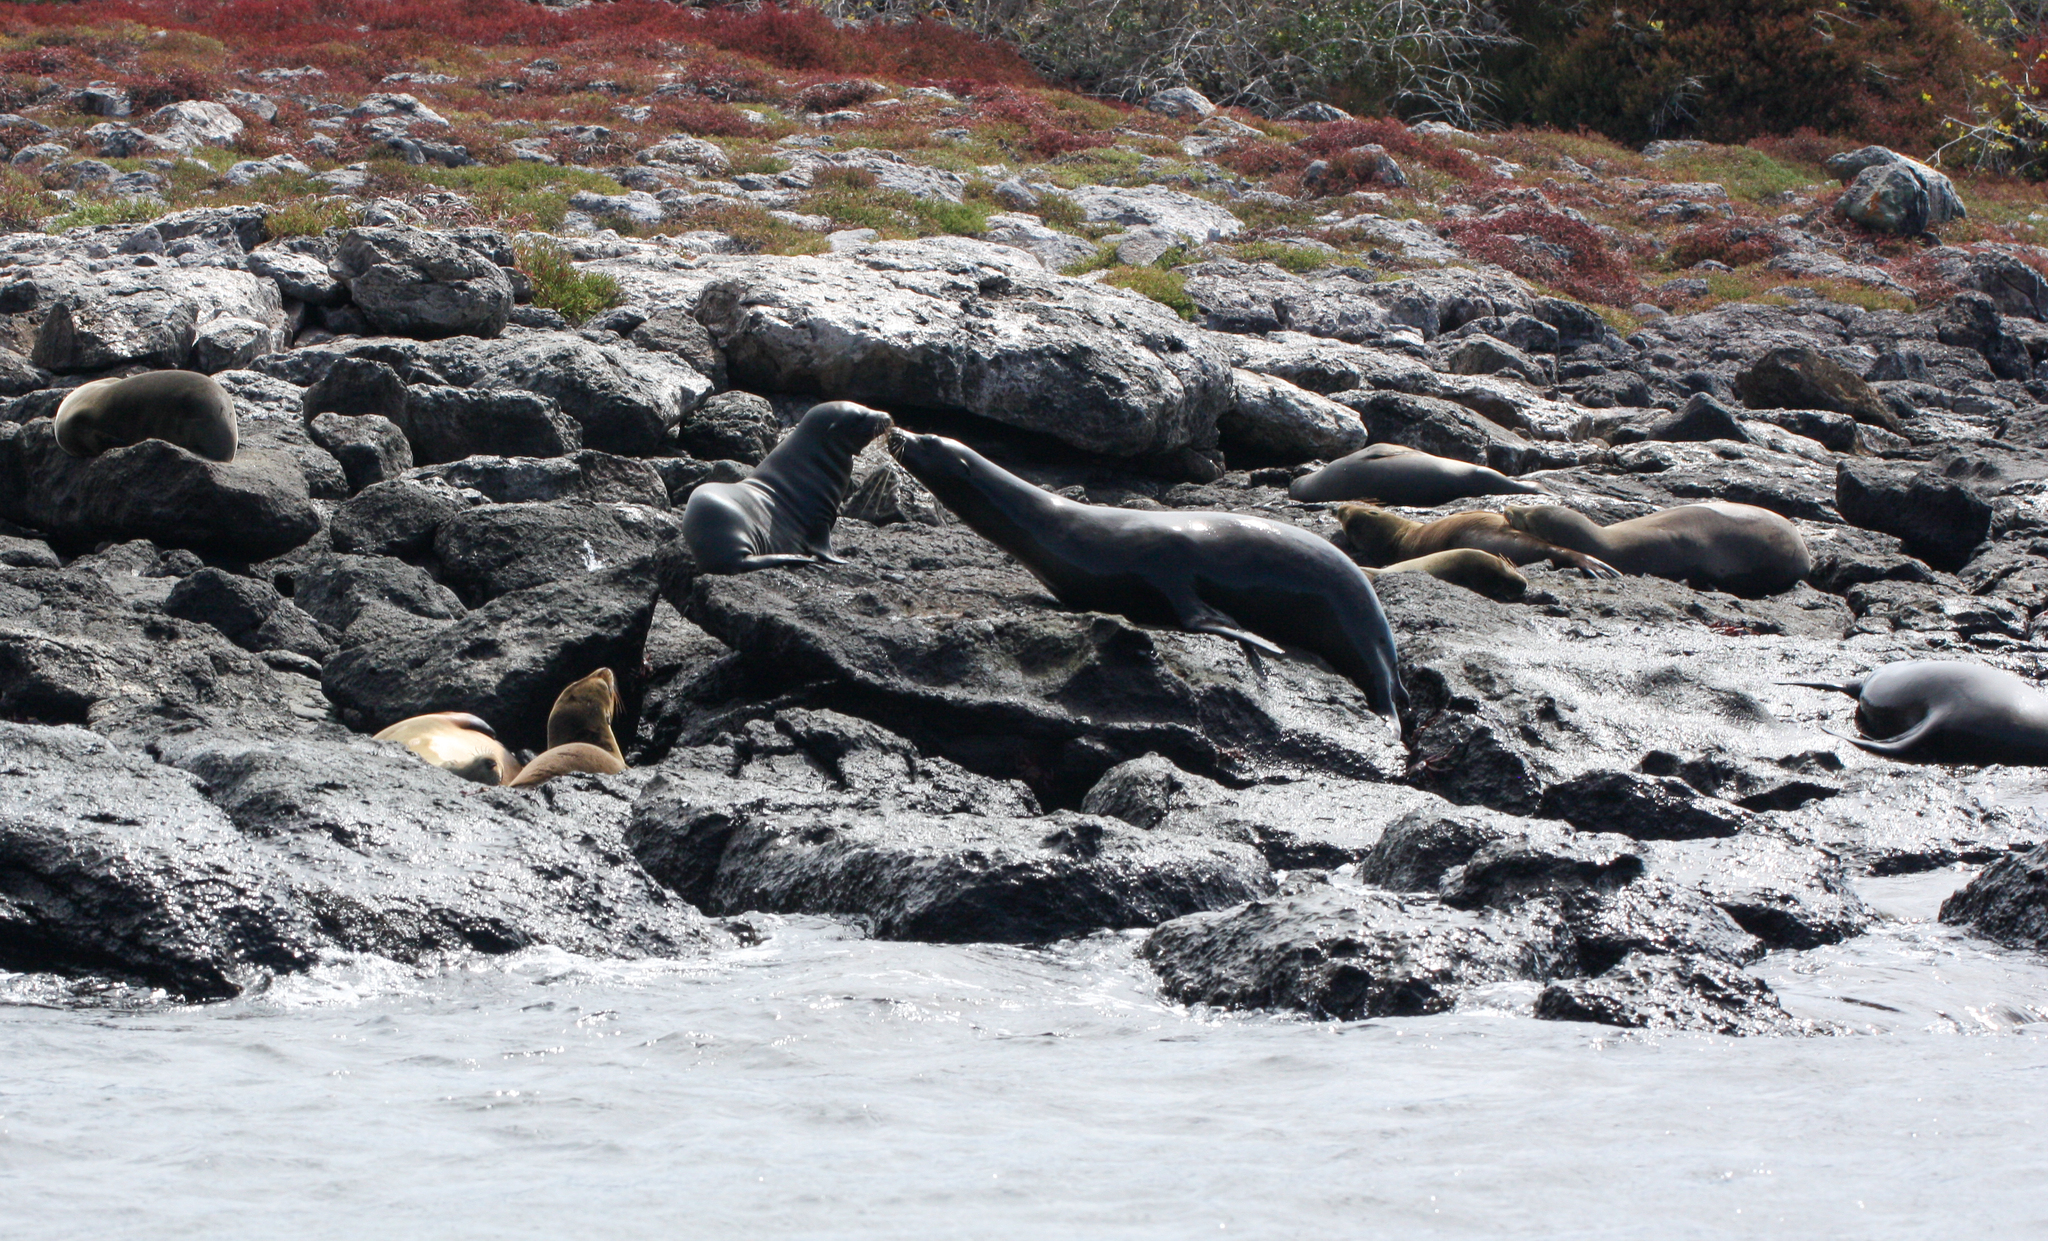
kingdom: Animalia
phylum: Chordata
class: Mammalia
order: Carnivora
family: Otariidae
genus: Zalophus
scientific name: Zalophus wollebaeki
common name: Galapagos sea lion
